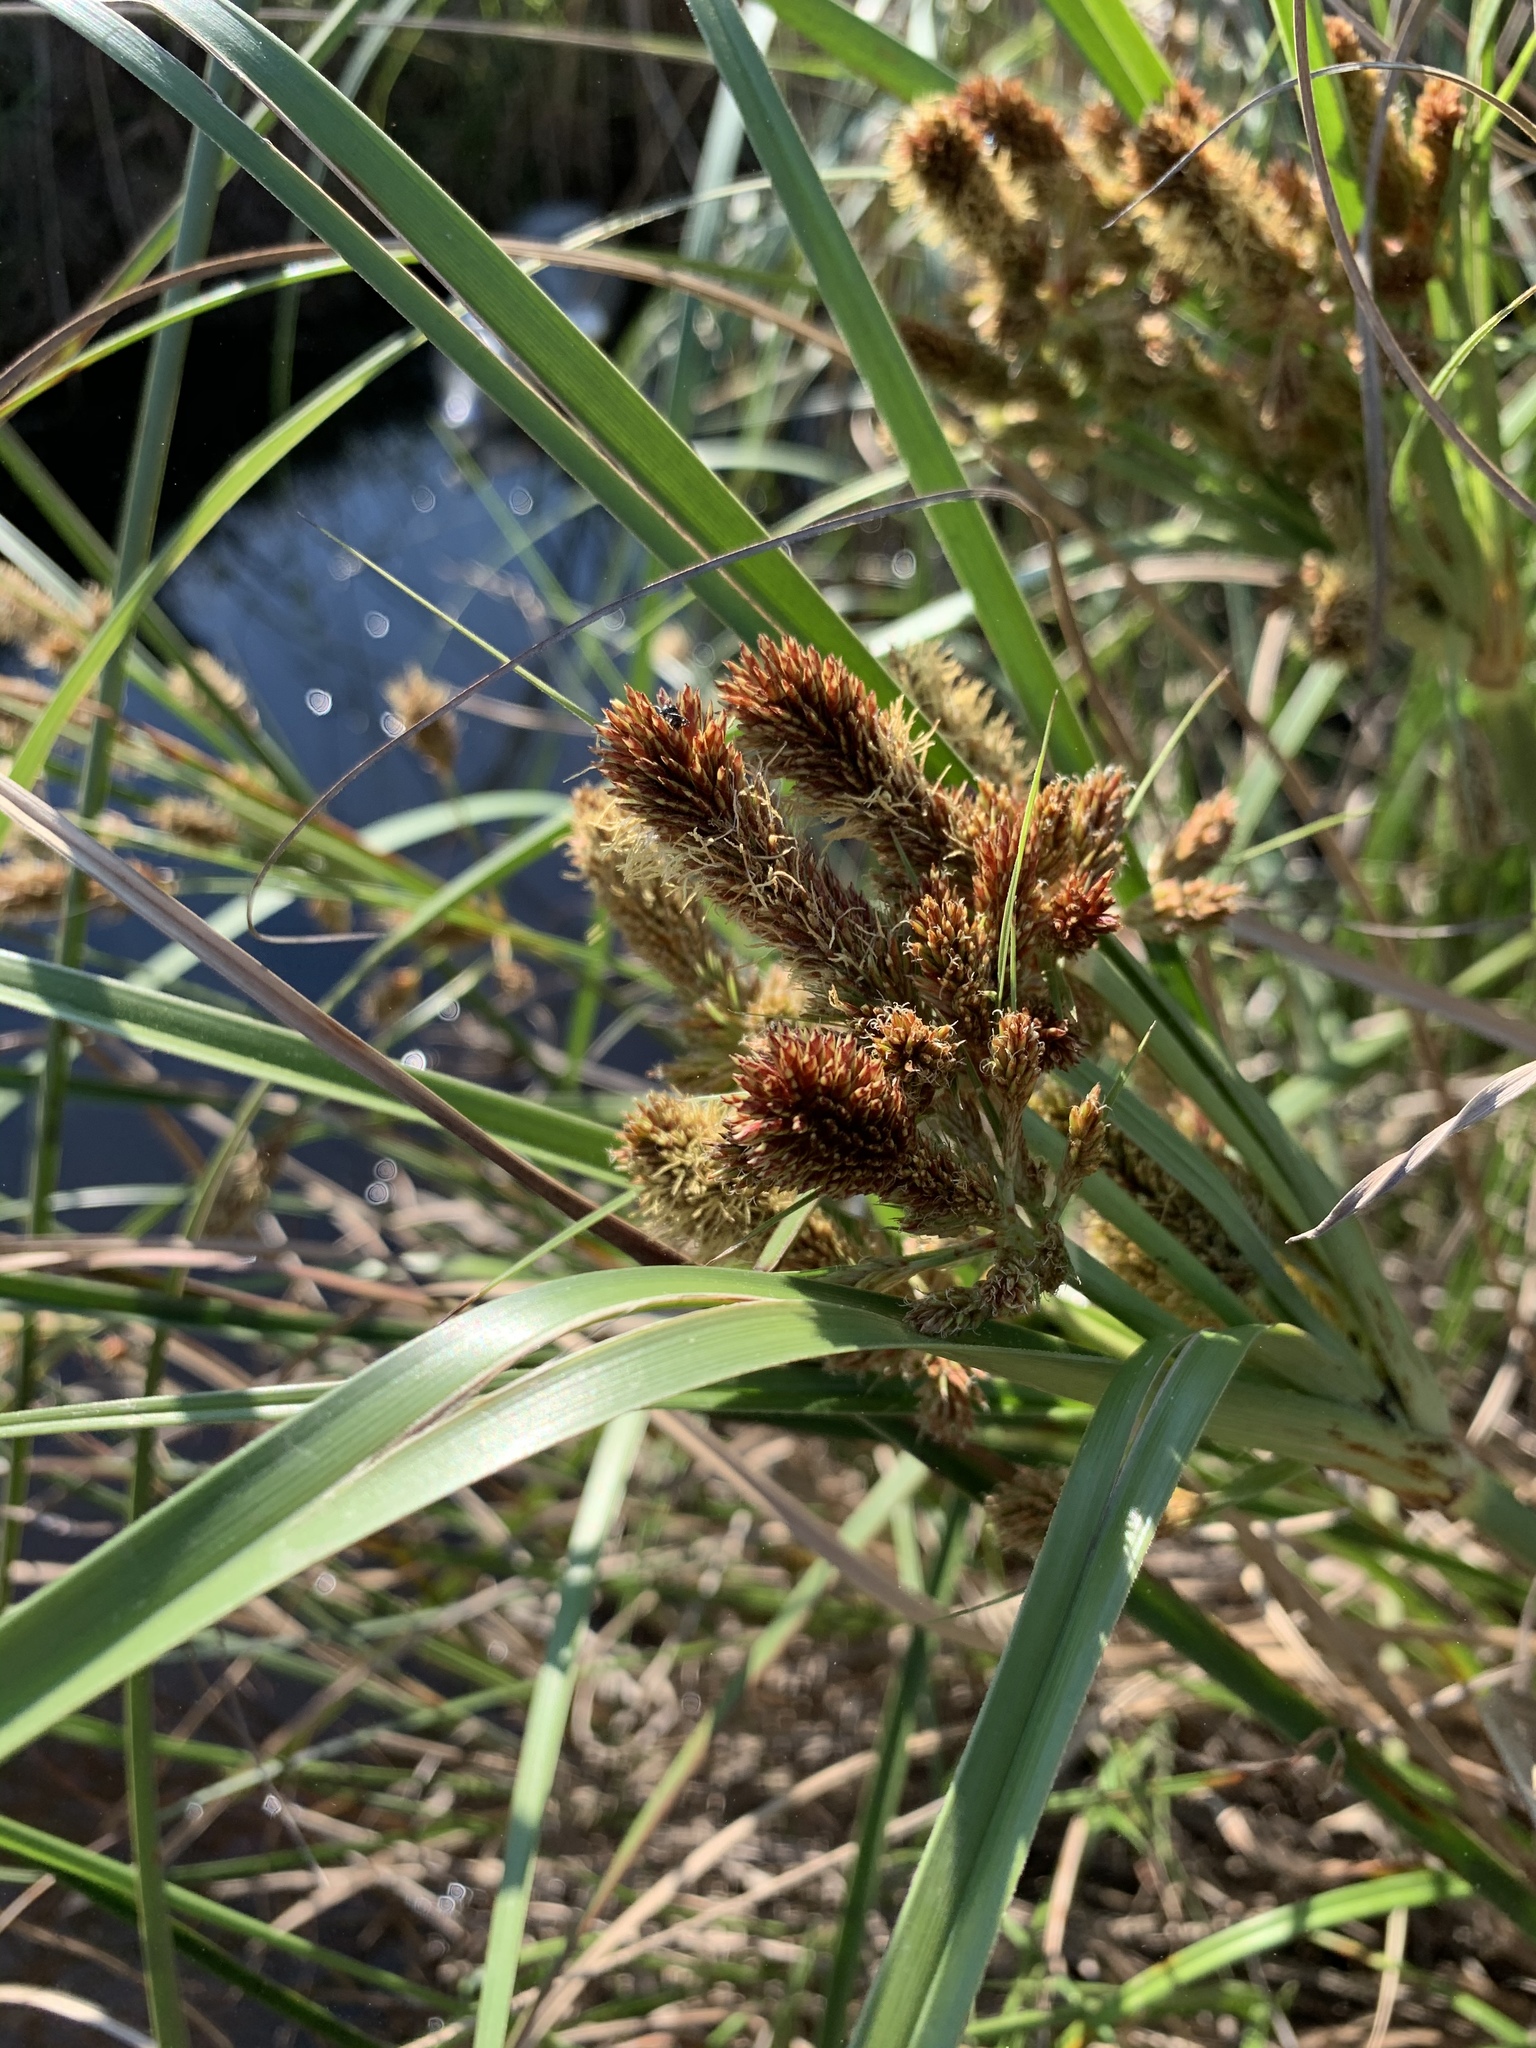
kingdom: Plantae
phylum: Tracheophyta
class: Liliopsida
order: Poales
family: Cyperaceae
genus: Cyperus
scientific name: Cyperus thunbergii
